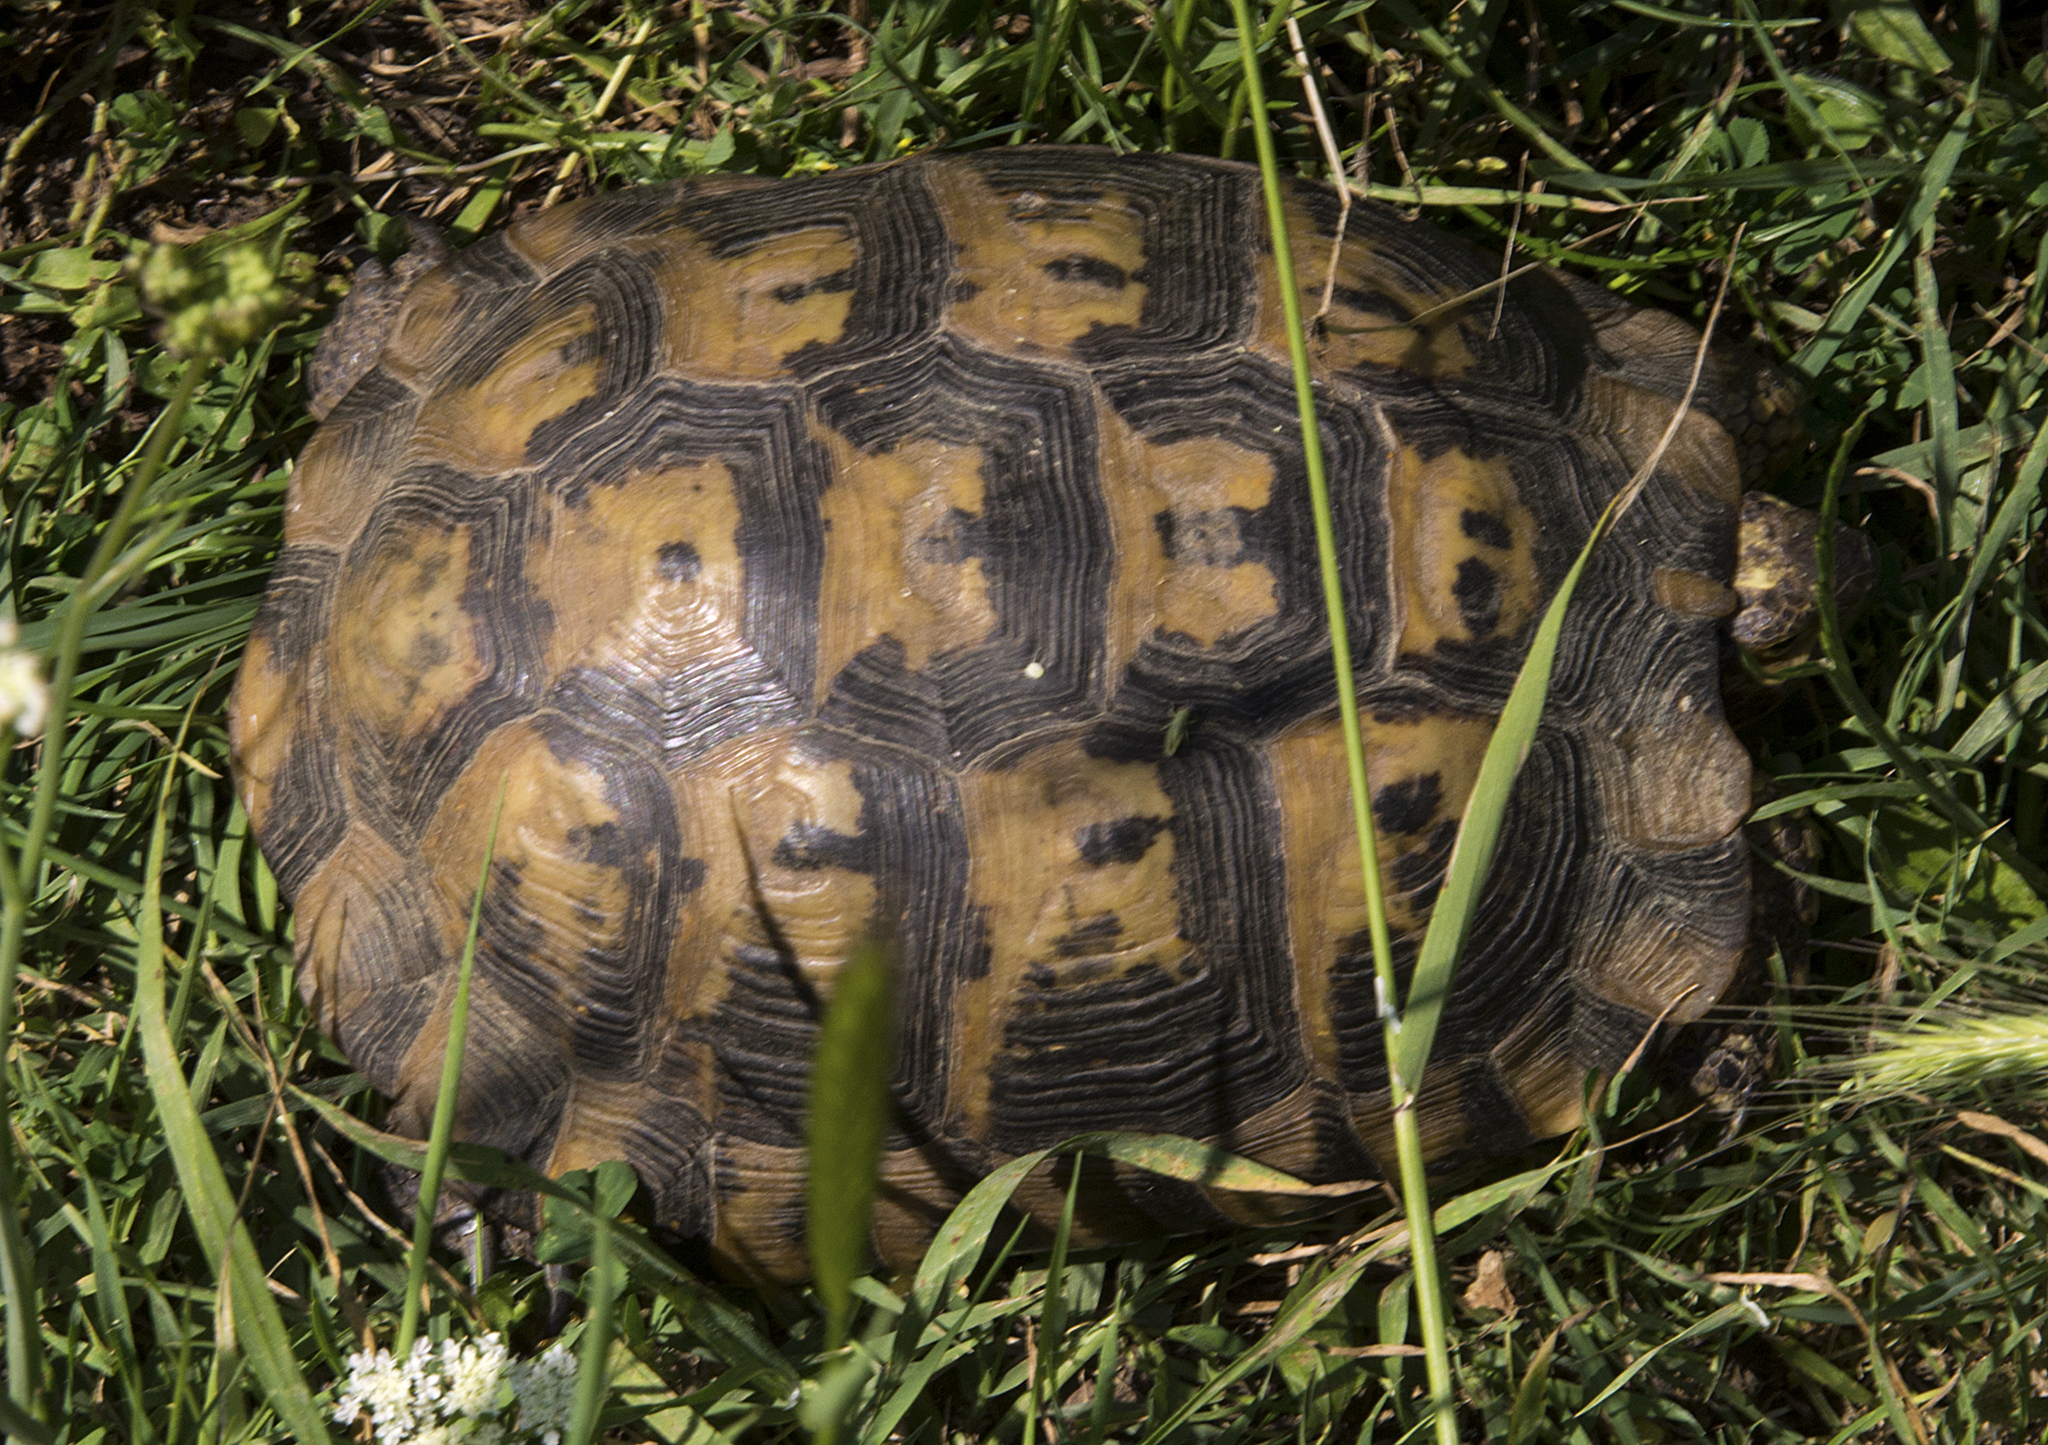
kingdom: Animalia
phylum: Chordata
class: Testudines
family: Testudinidae
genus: Testudo
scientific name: Testudo graeca
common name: Common tortoise
